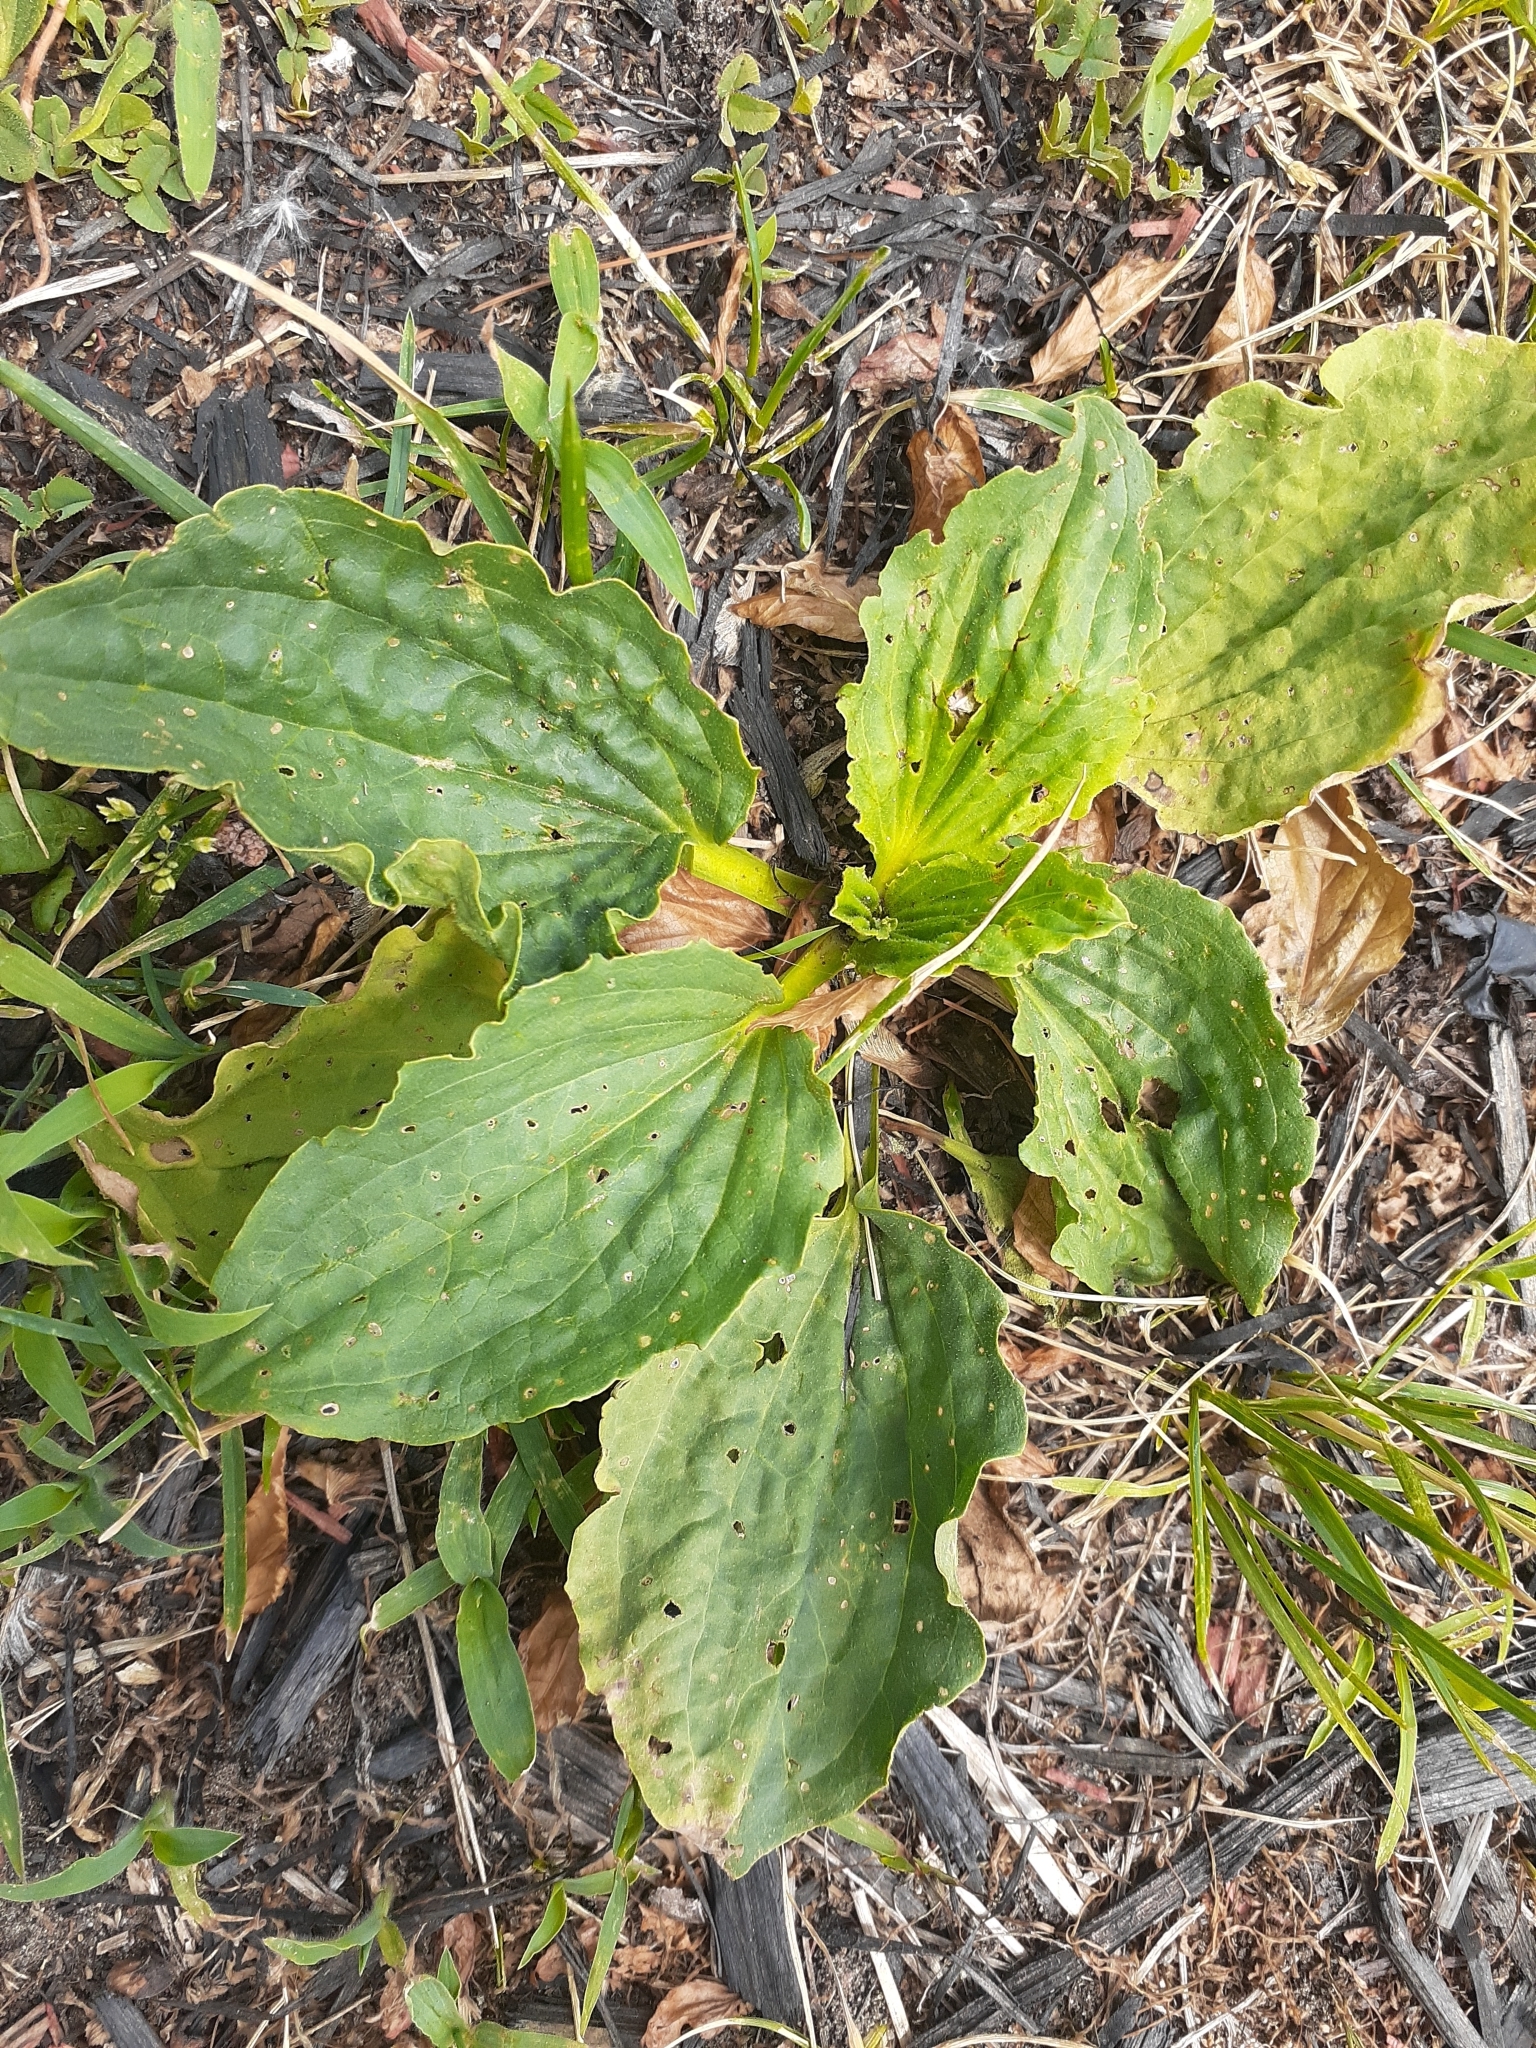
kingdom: Plantae
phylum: Tracheophyta
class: Magnoliopsida
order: Lamiales
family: Plantaginaceae
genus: Plantago
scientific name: Plantago major
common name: Common plantain
